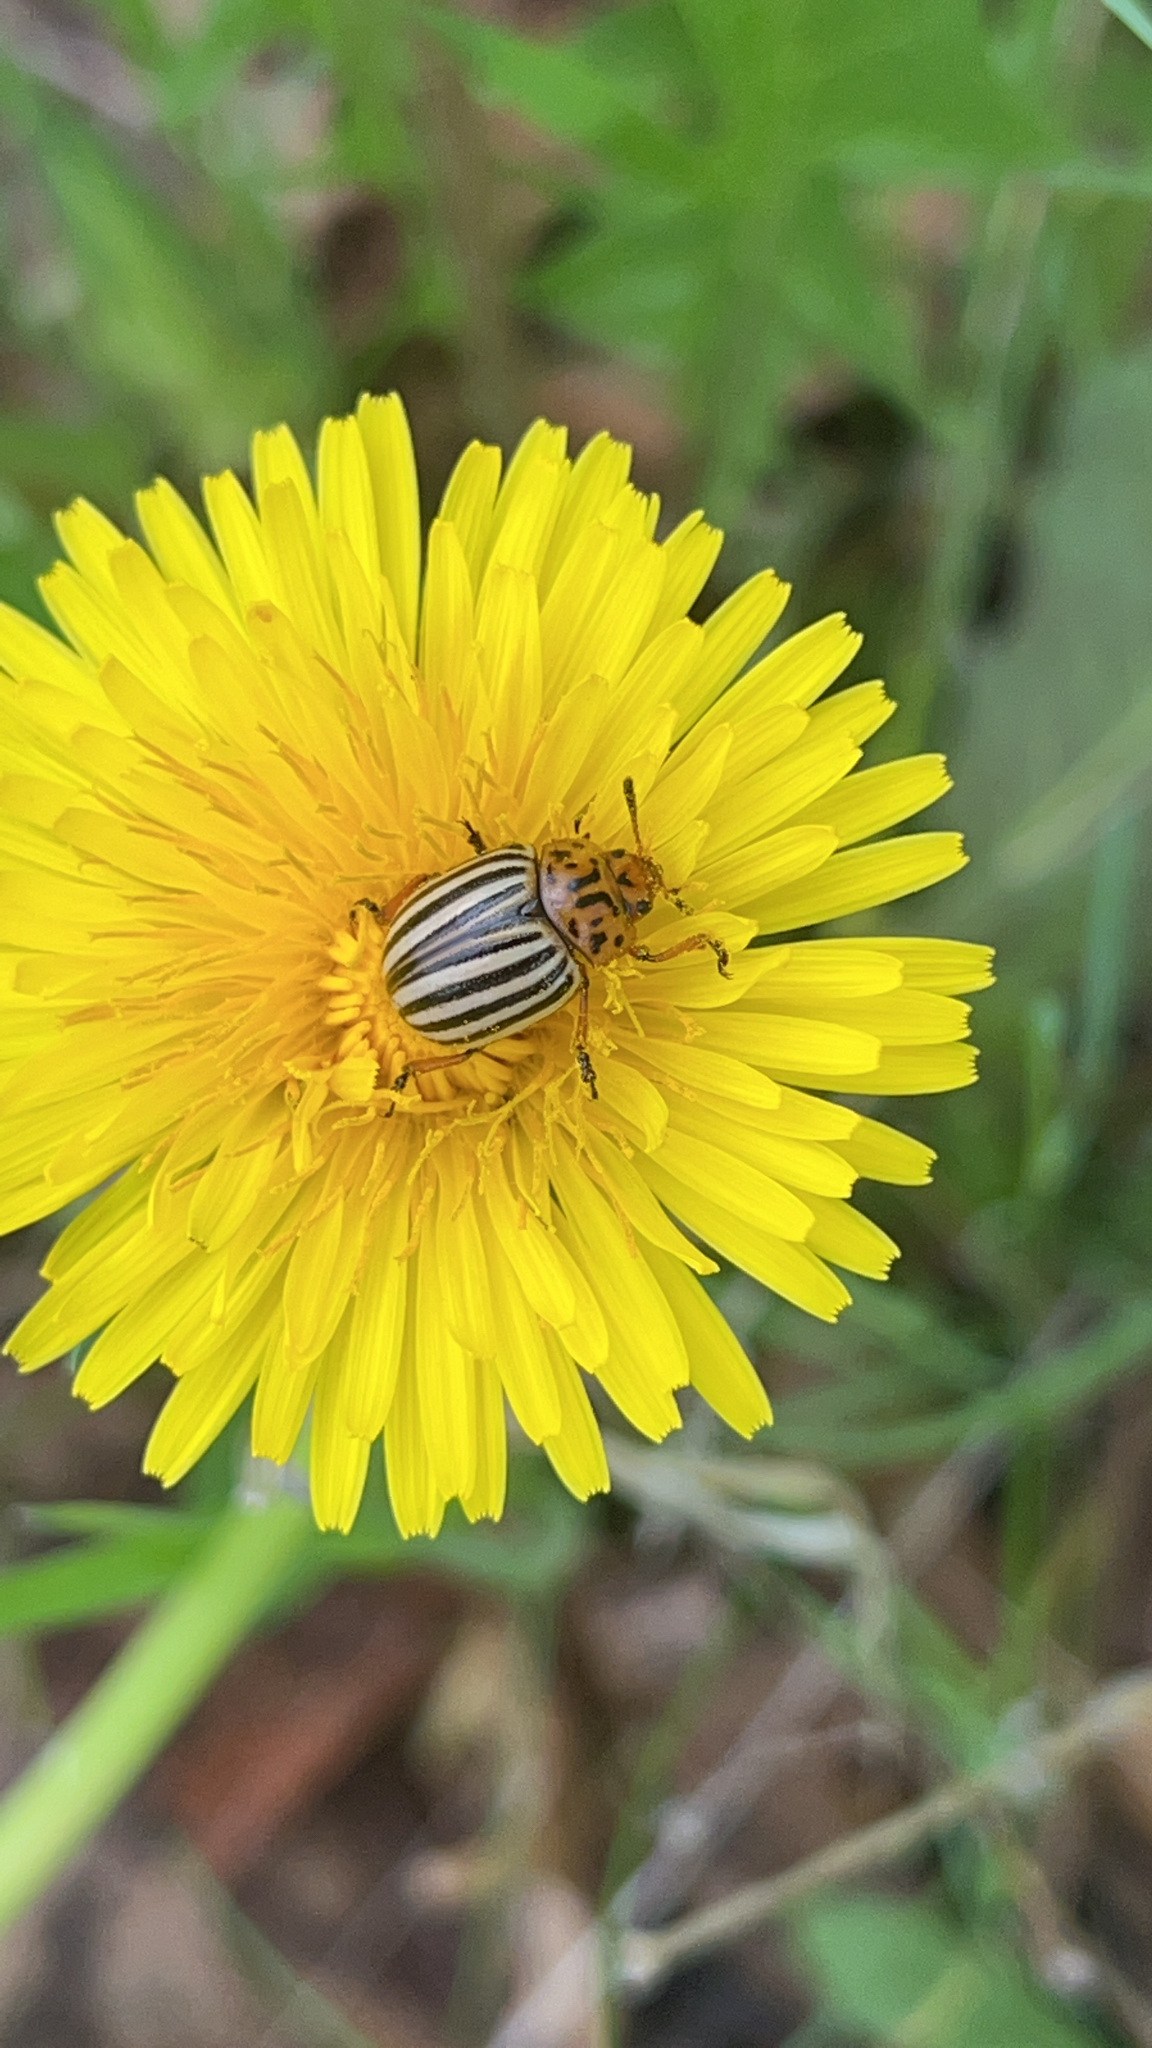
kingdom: Animalia
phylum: Arthropoda
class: Insecta
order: Coleoptera
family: Chrysomelidae
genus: Leptinotarsa
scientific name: Leptinotarsa decemlineata
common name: Colorado potato beetle
